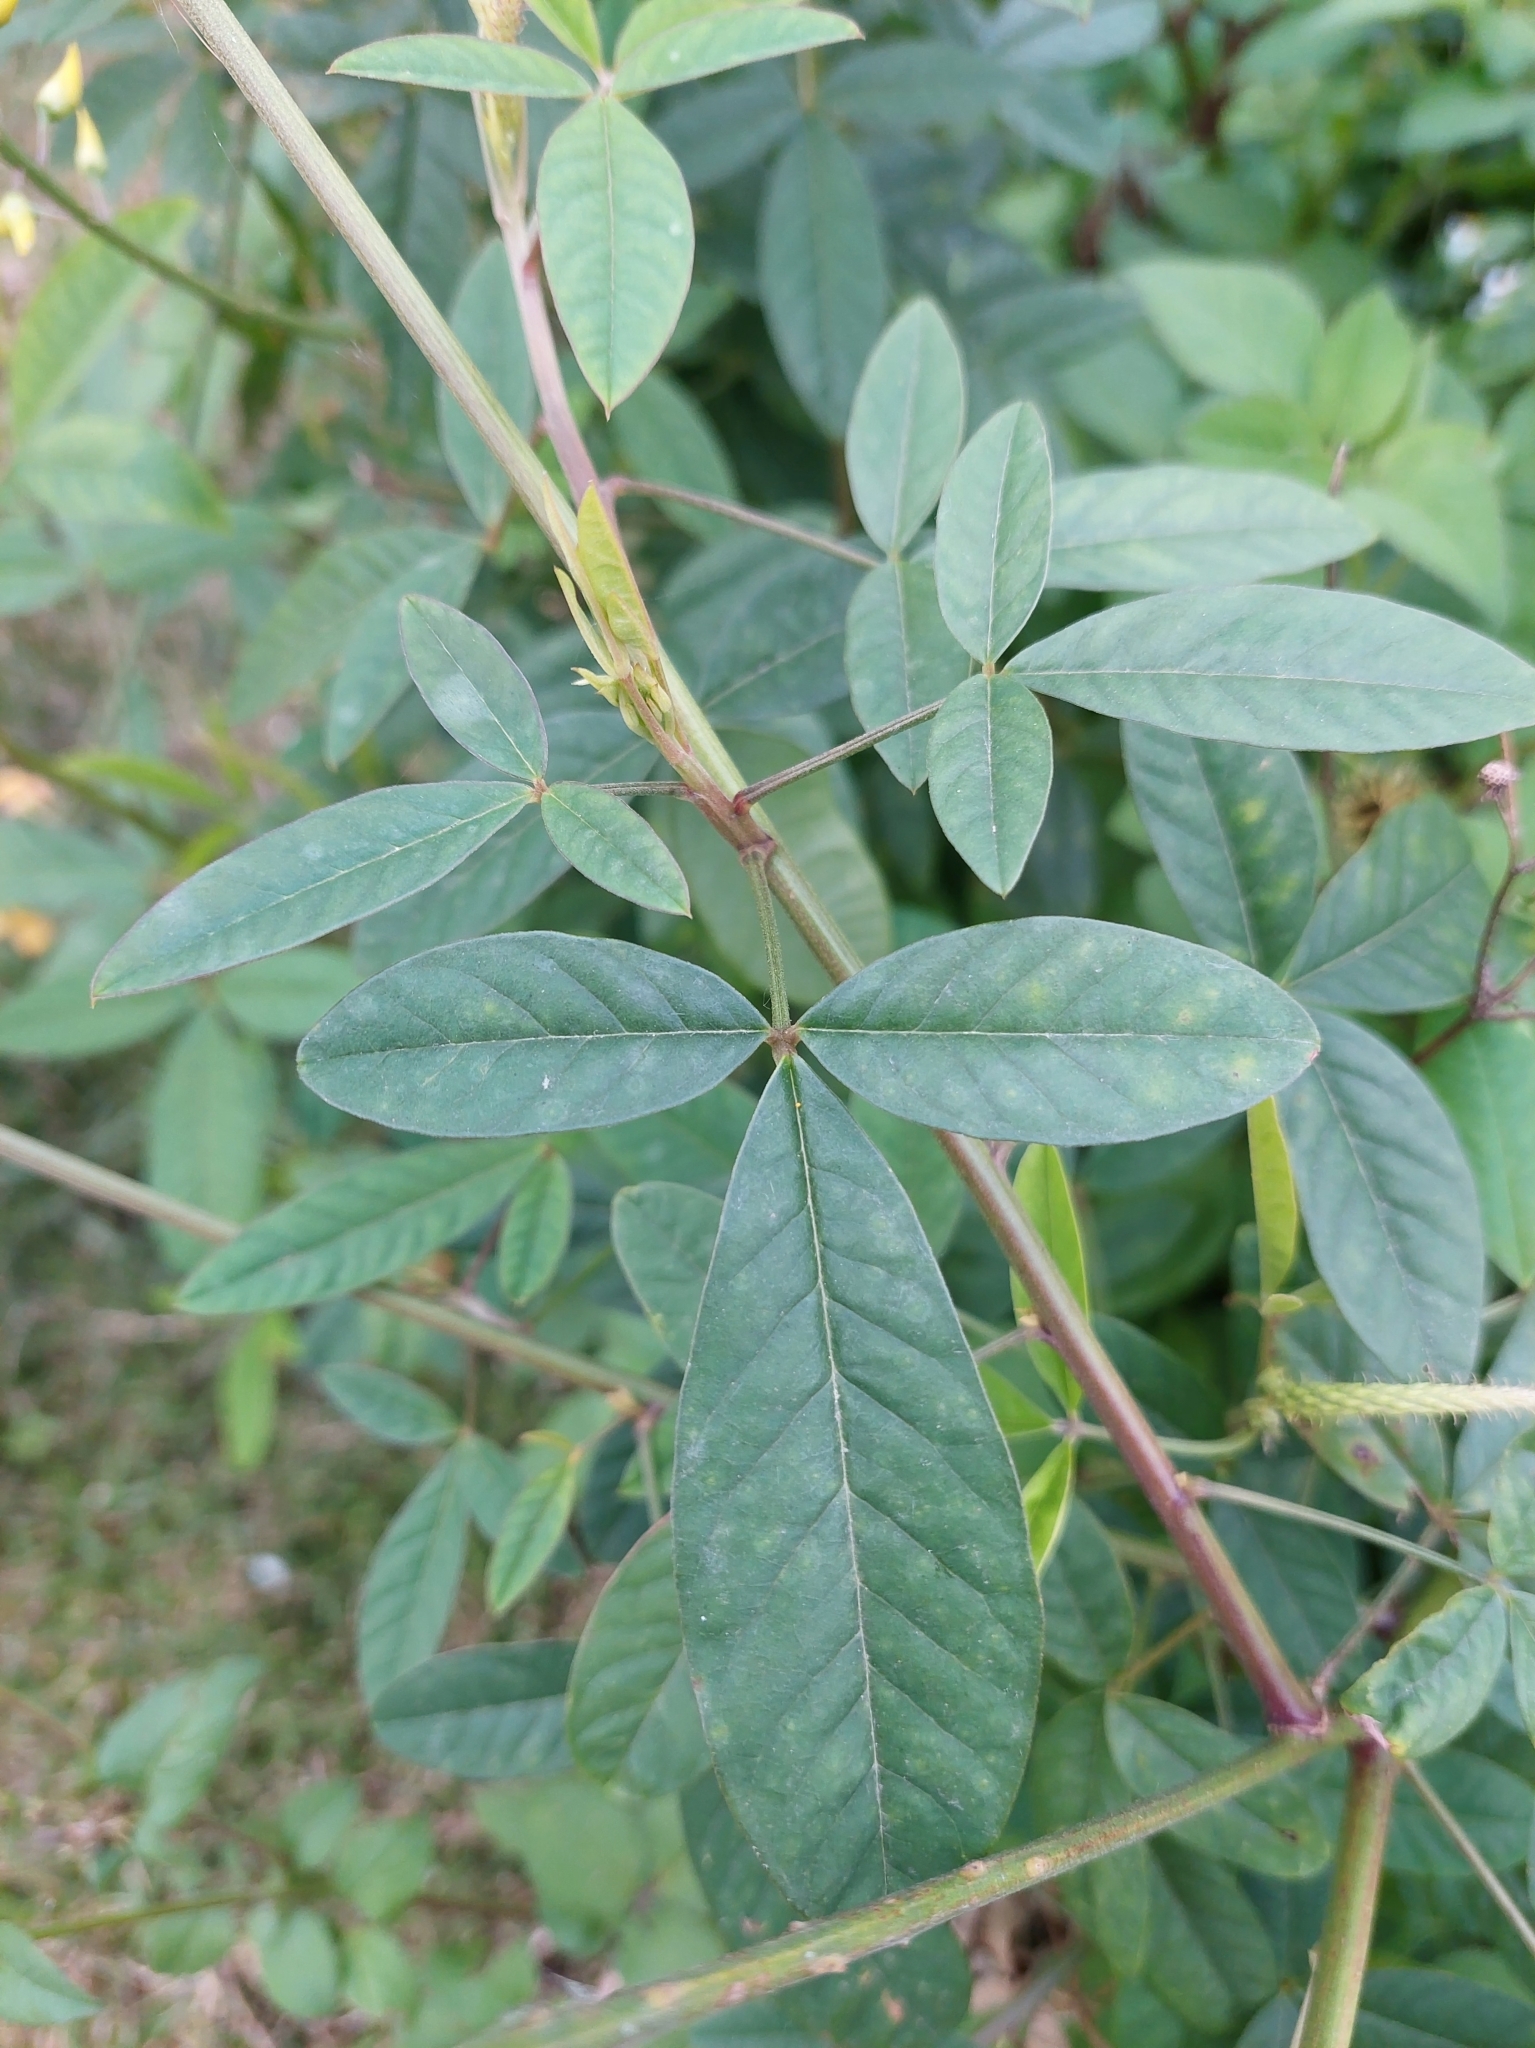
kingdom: Plantae
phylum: Tracheophyta
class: Magnoliopsida
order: Fabales
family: Fabaceae
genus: Crotalaria
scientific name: Crotalaria trichotoma
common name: West indian rattlebox
